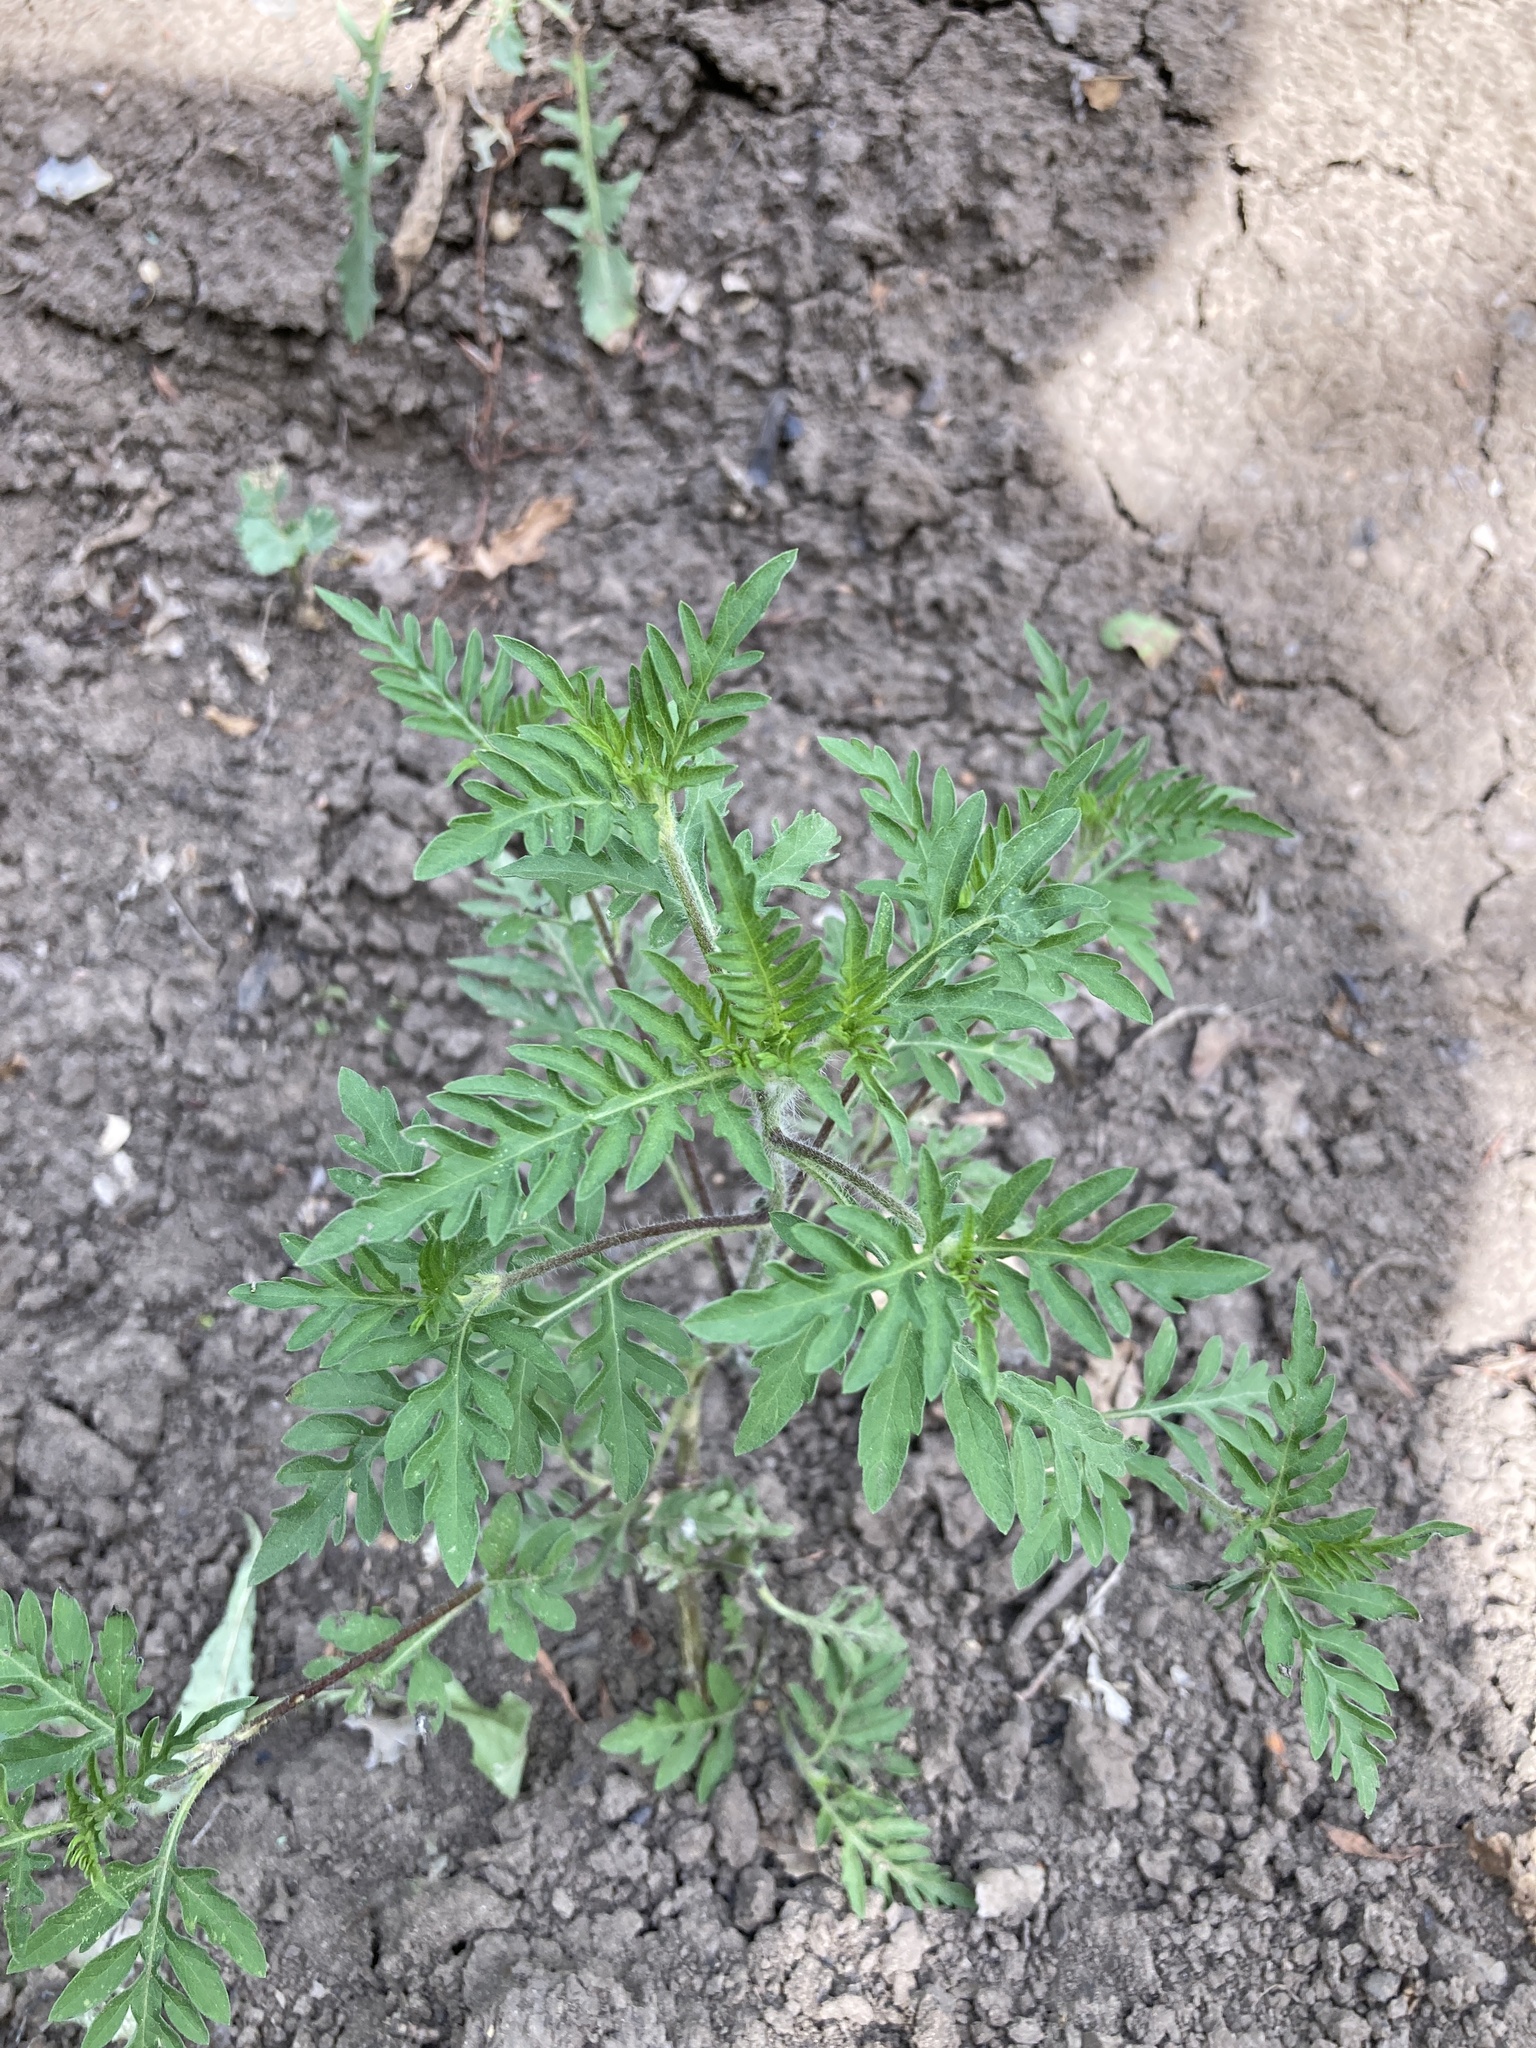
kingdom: Plantae
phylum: Tracheophyta
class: Magnoliopsida
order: Asterales
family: Asteraceae
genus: Ambrosia
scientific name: Ambrosia artemisiifolia
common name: Annual ragweed
